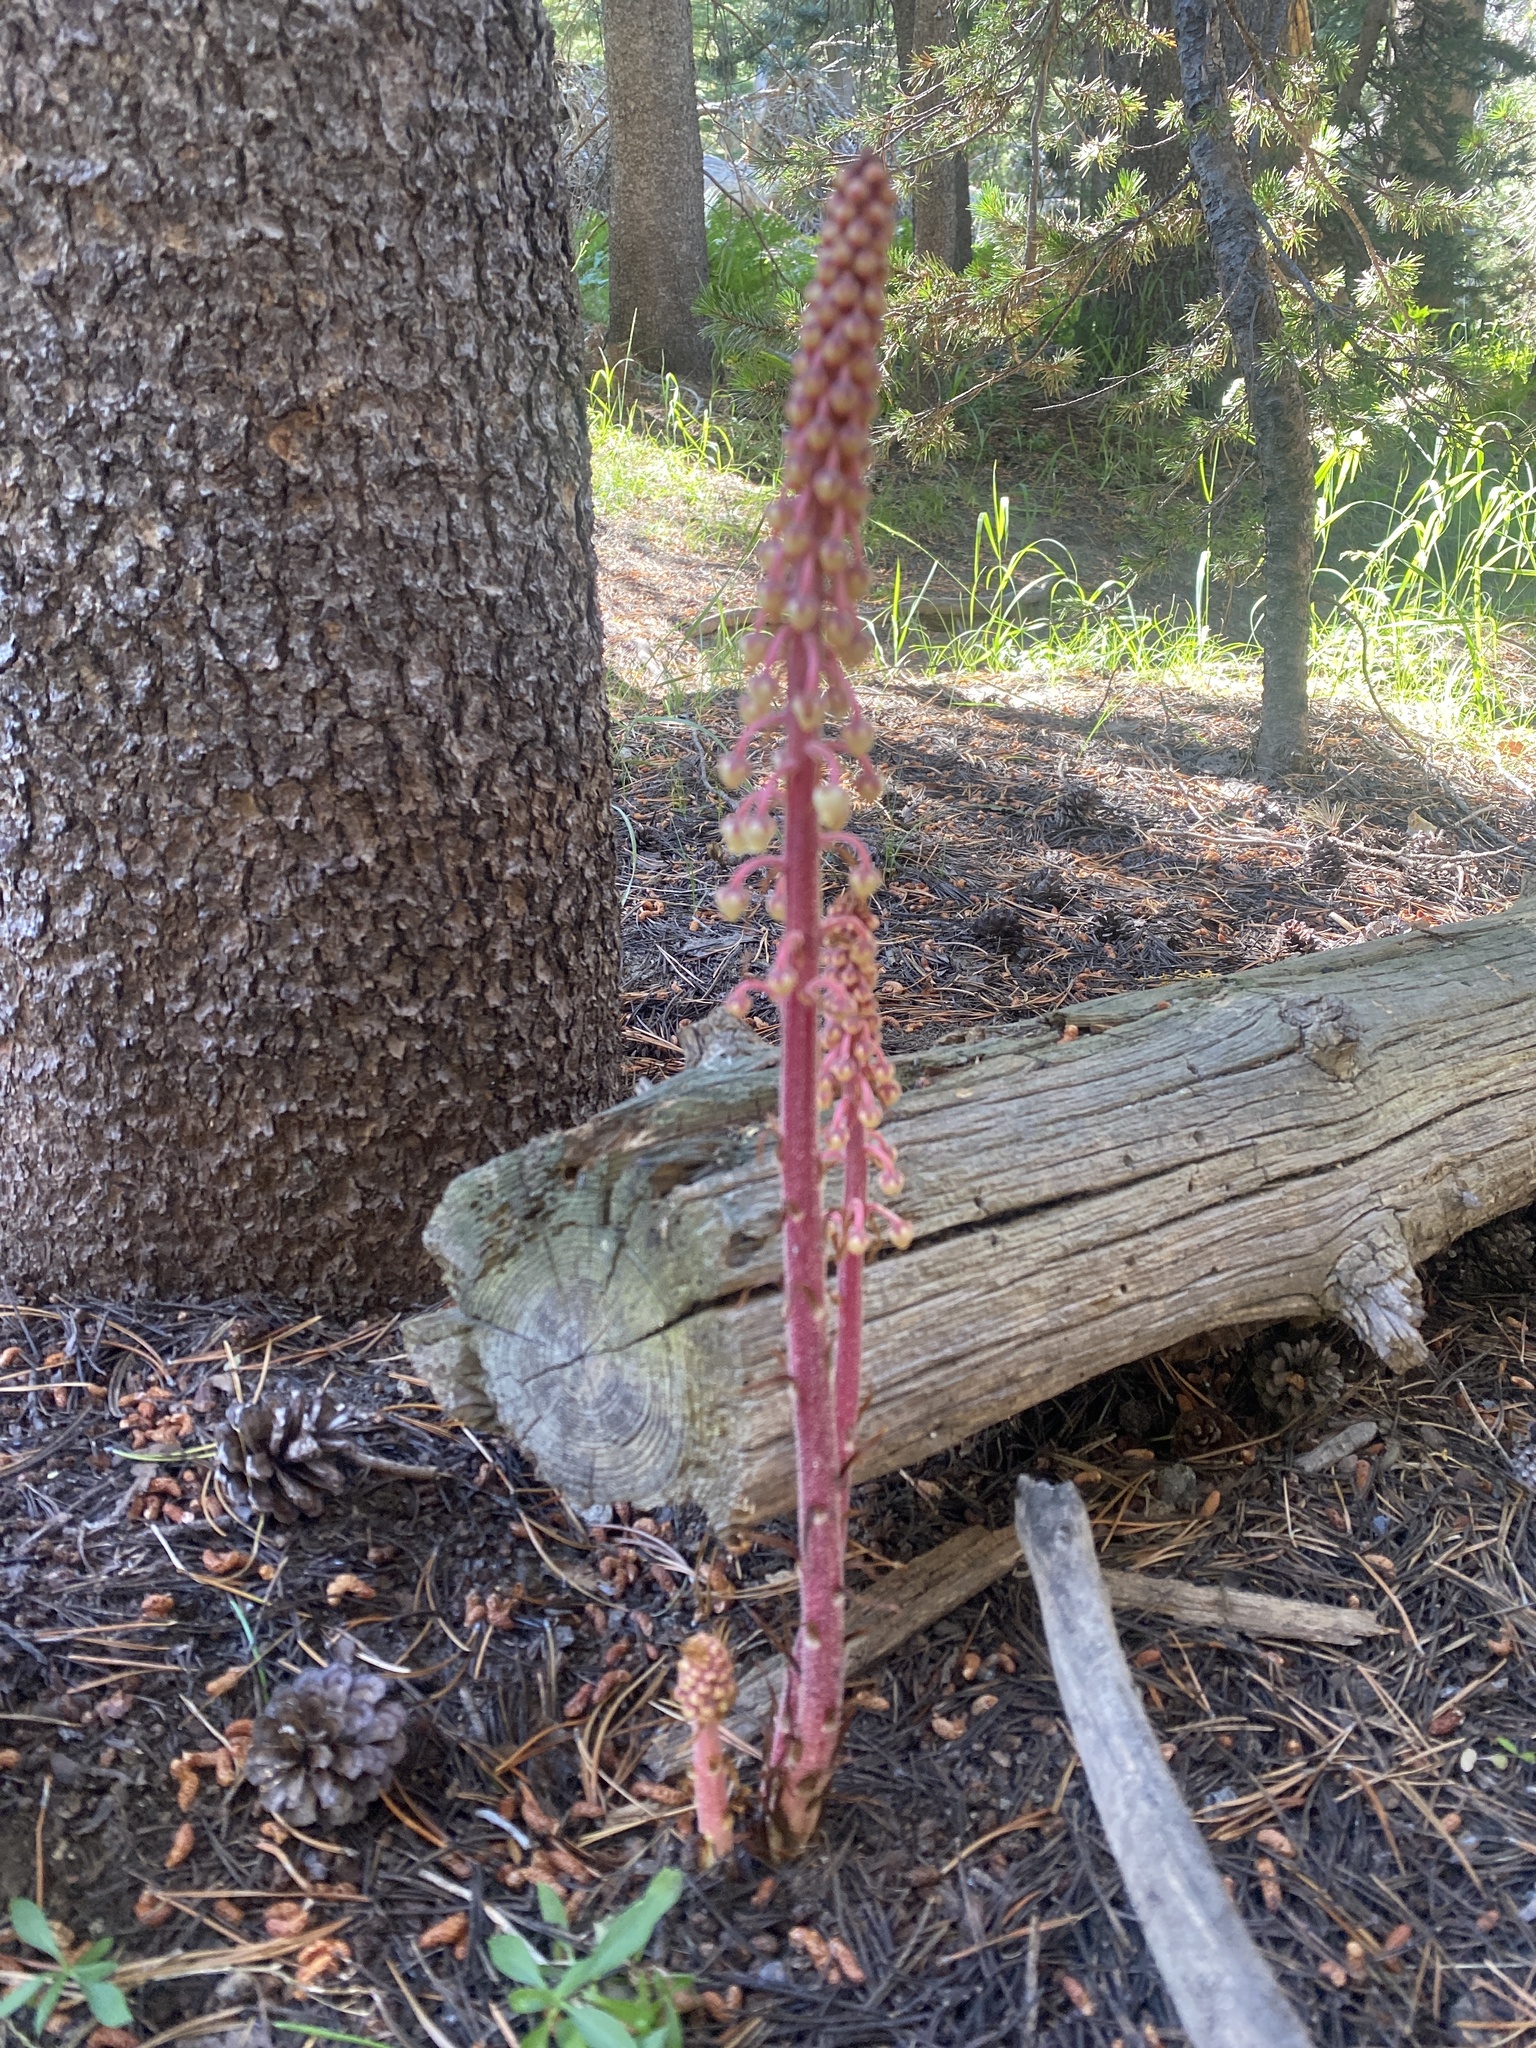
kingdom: Plantae
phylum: Tracheophyta
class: Magnoliopsida
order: Ericales
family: Ericaceae
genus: Pterospora
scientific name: Pterospora andromedea
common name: Giant bird's-nest
